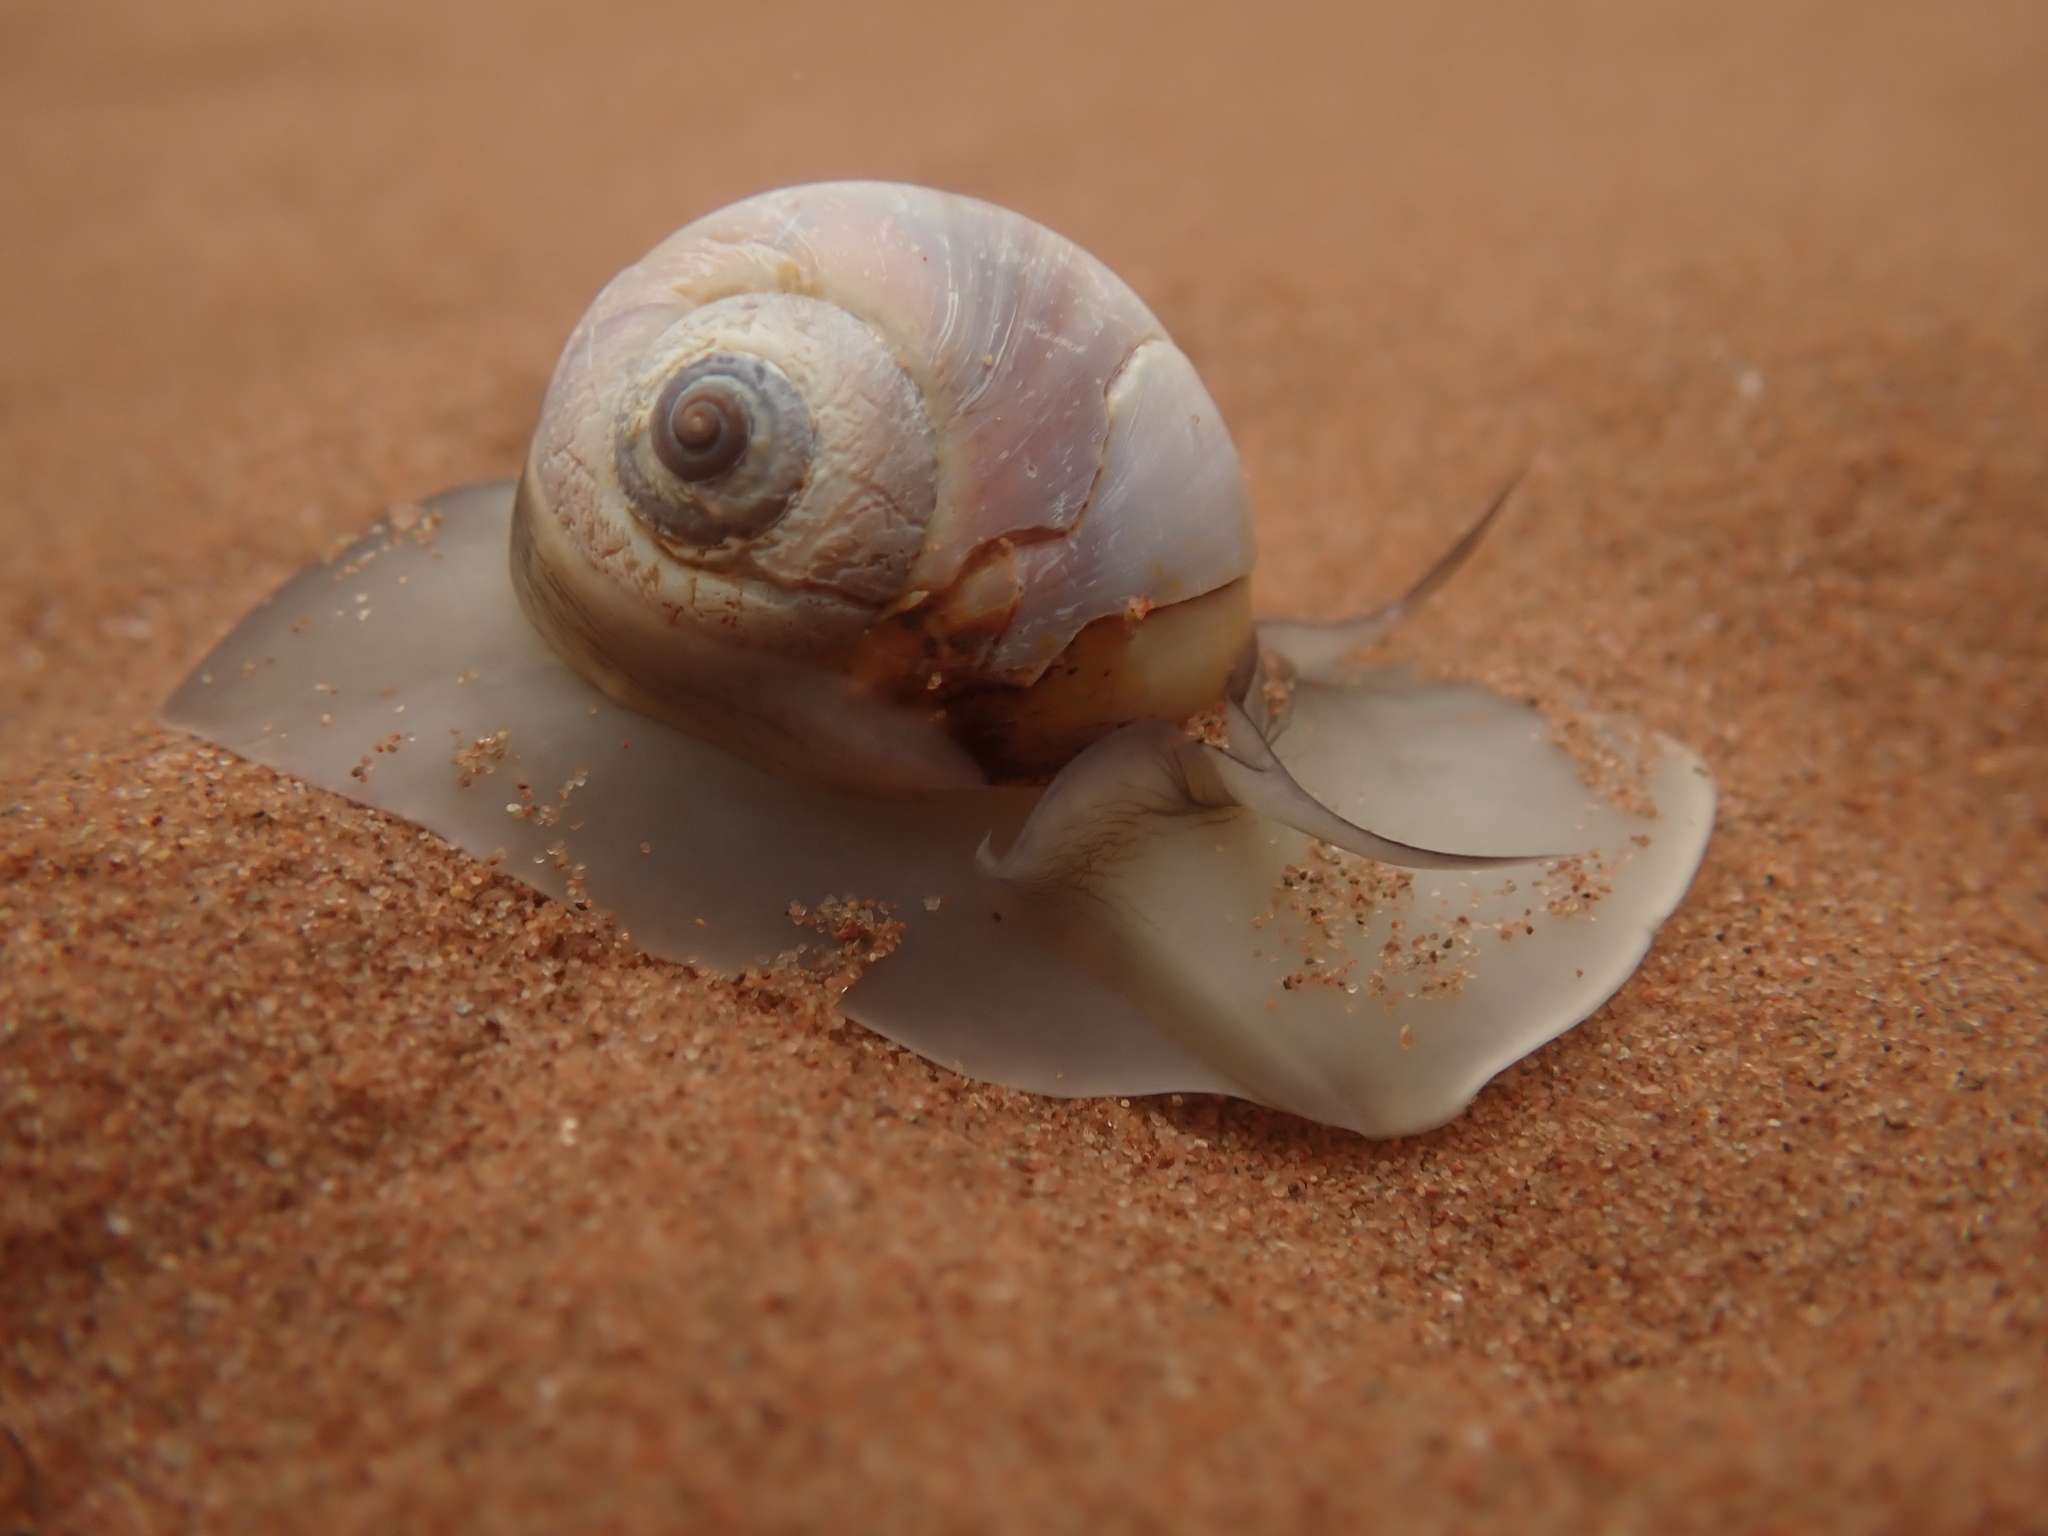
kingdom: Animalia
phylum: Mollusca
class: Gastropoda
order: Littorinimorpha
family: Naticidae
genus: Euspira
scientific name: Euspira heros
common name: Common northern moonsnail
